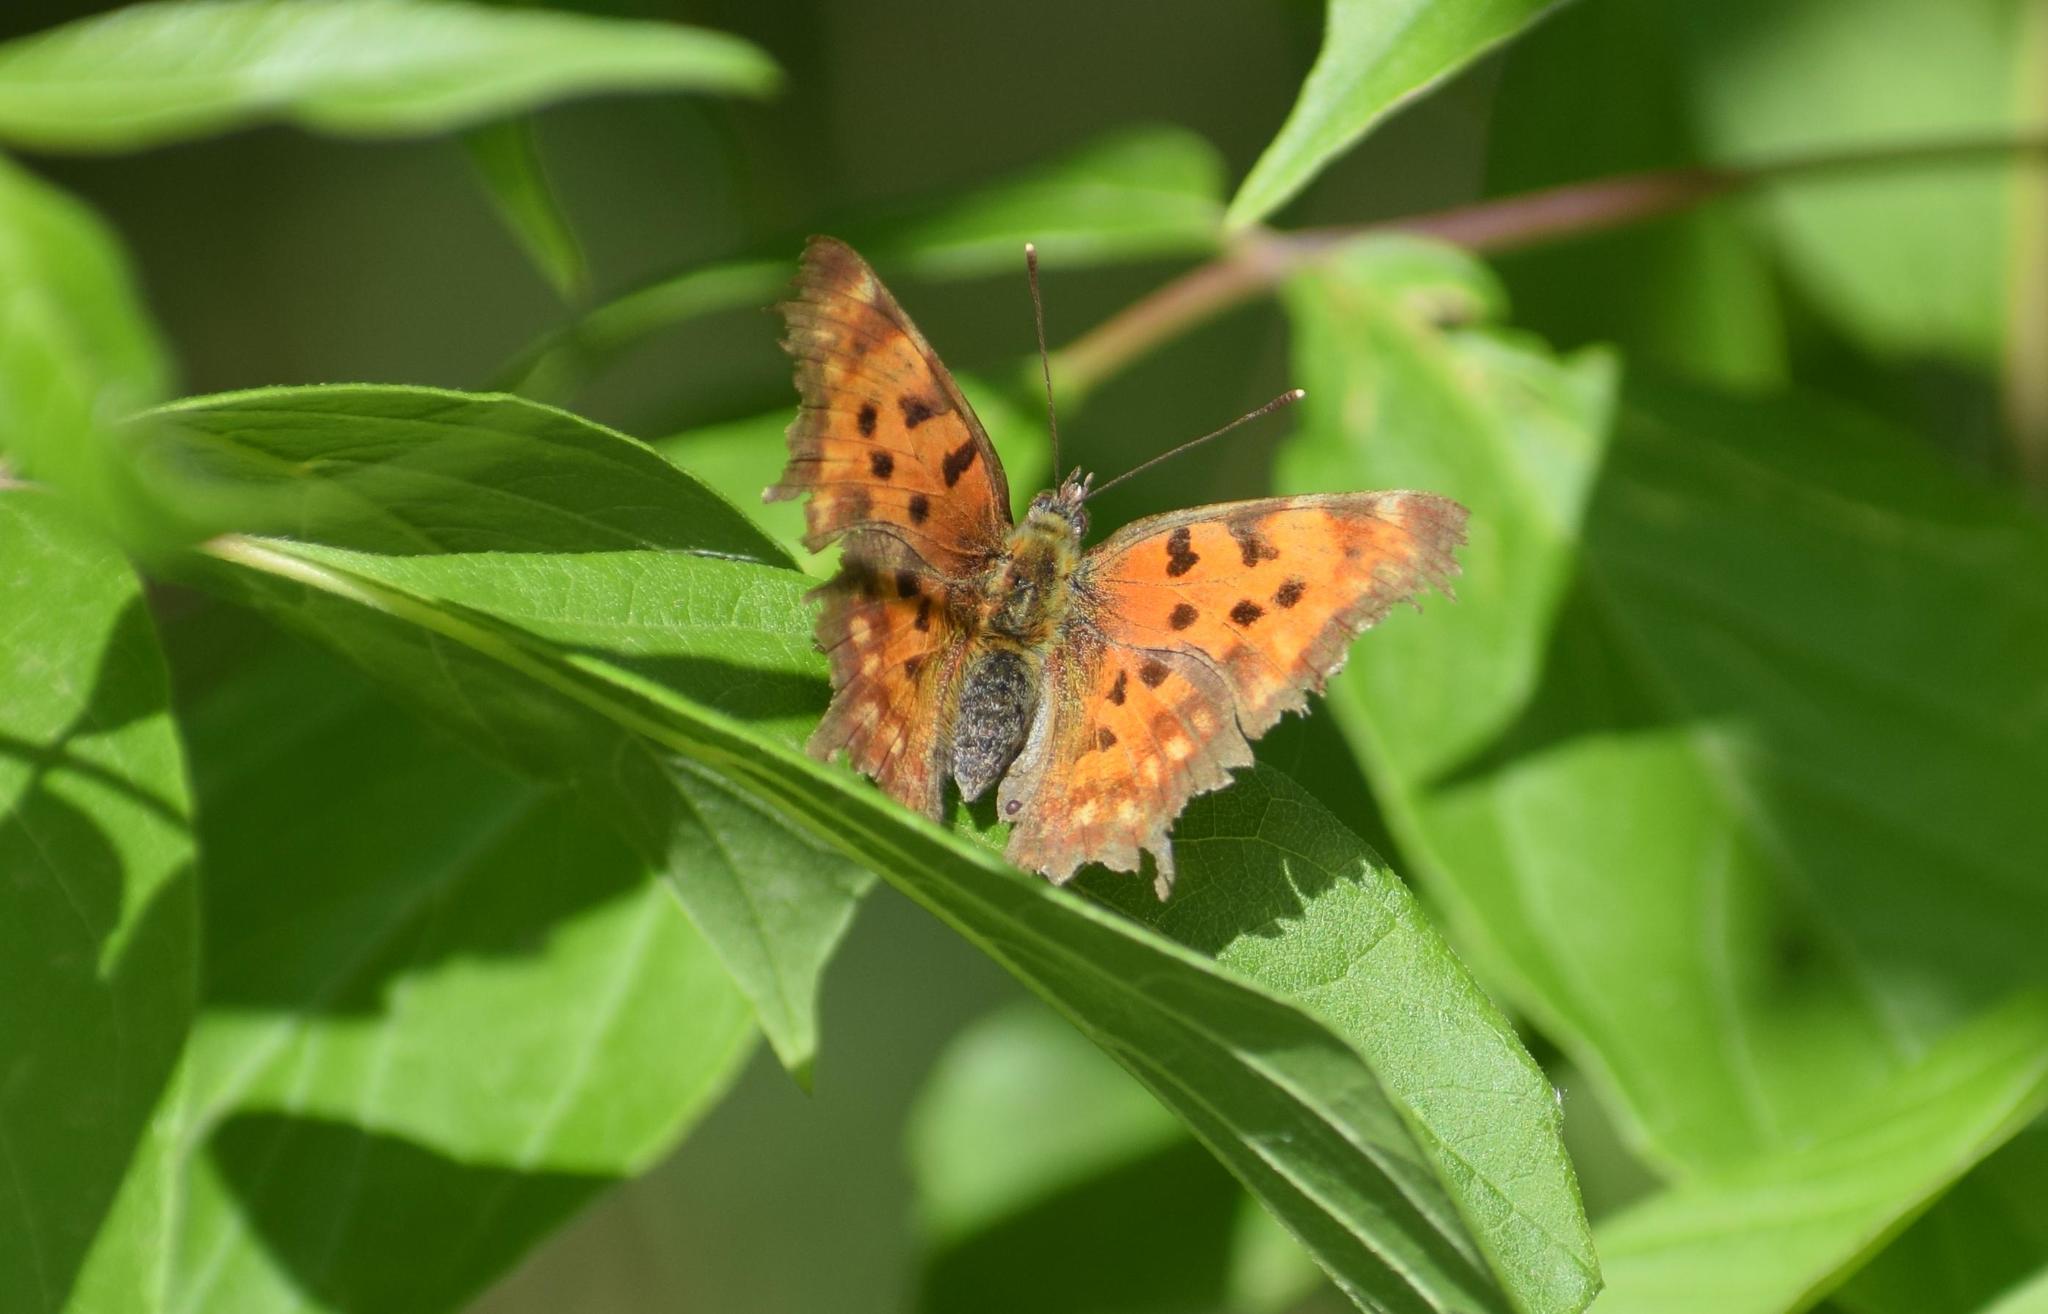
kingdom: Animalia
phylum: Arthropoda
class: Insecta
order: Lepidoptera
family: Nymphalidae
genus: Polygonia
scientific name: Polygonia c-album
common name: Comma
